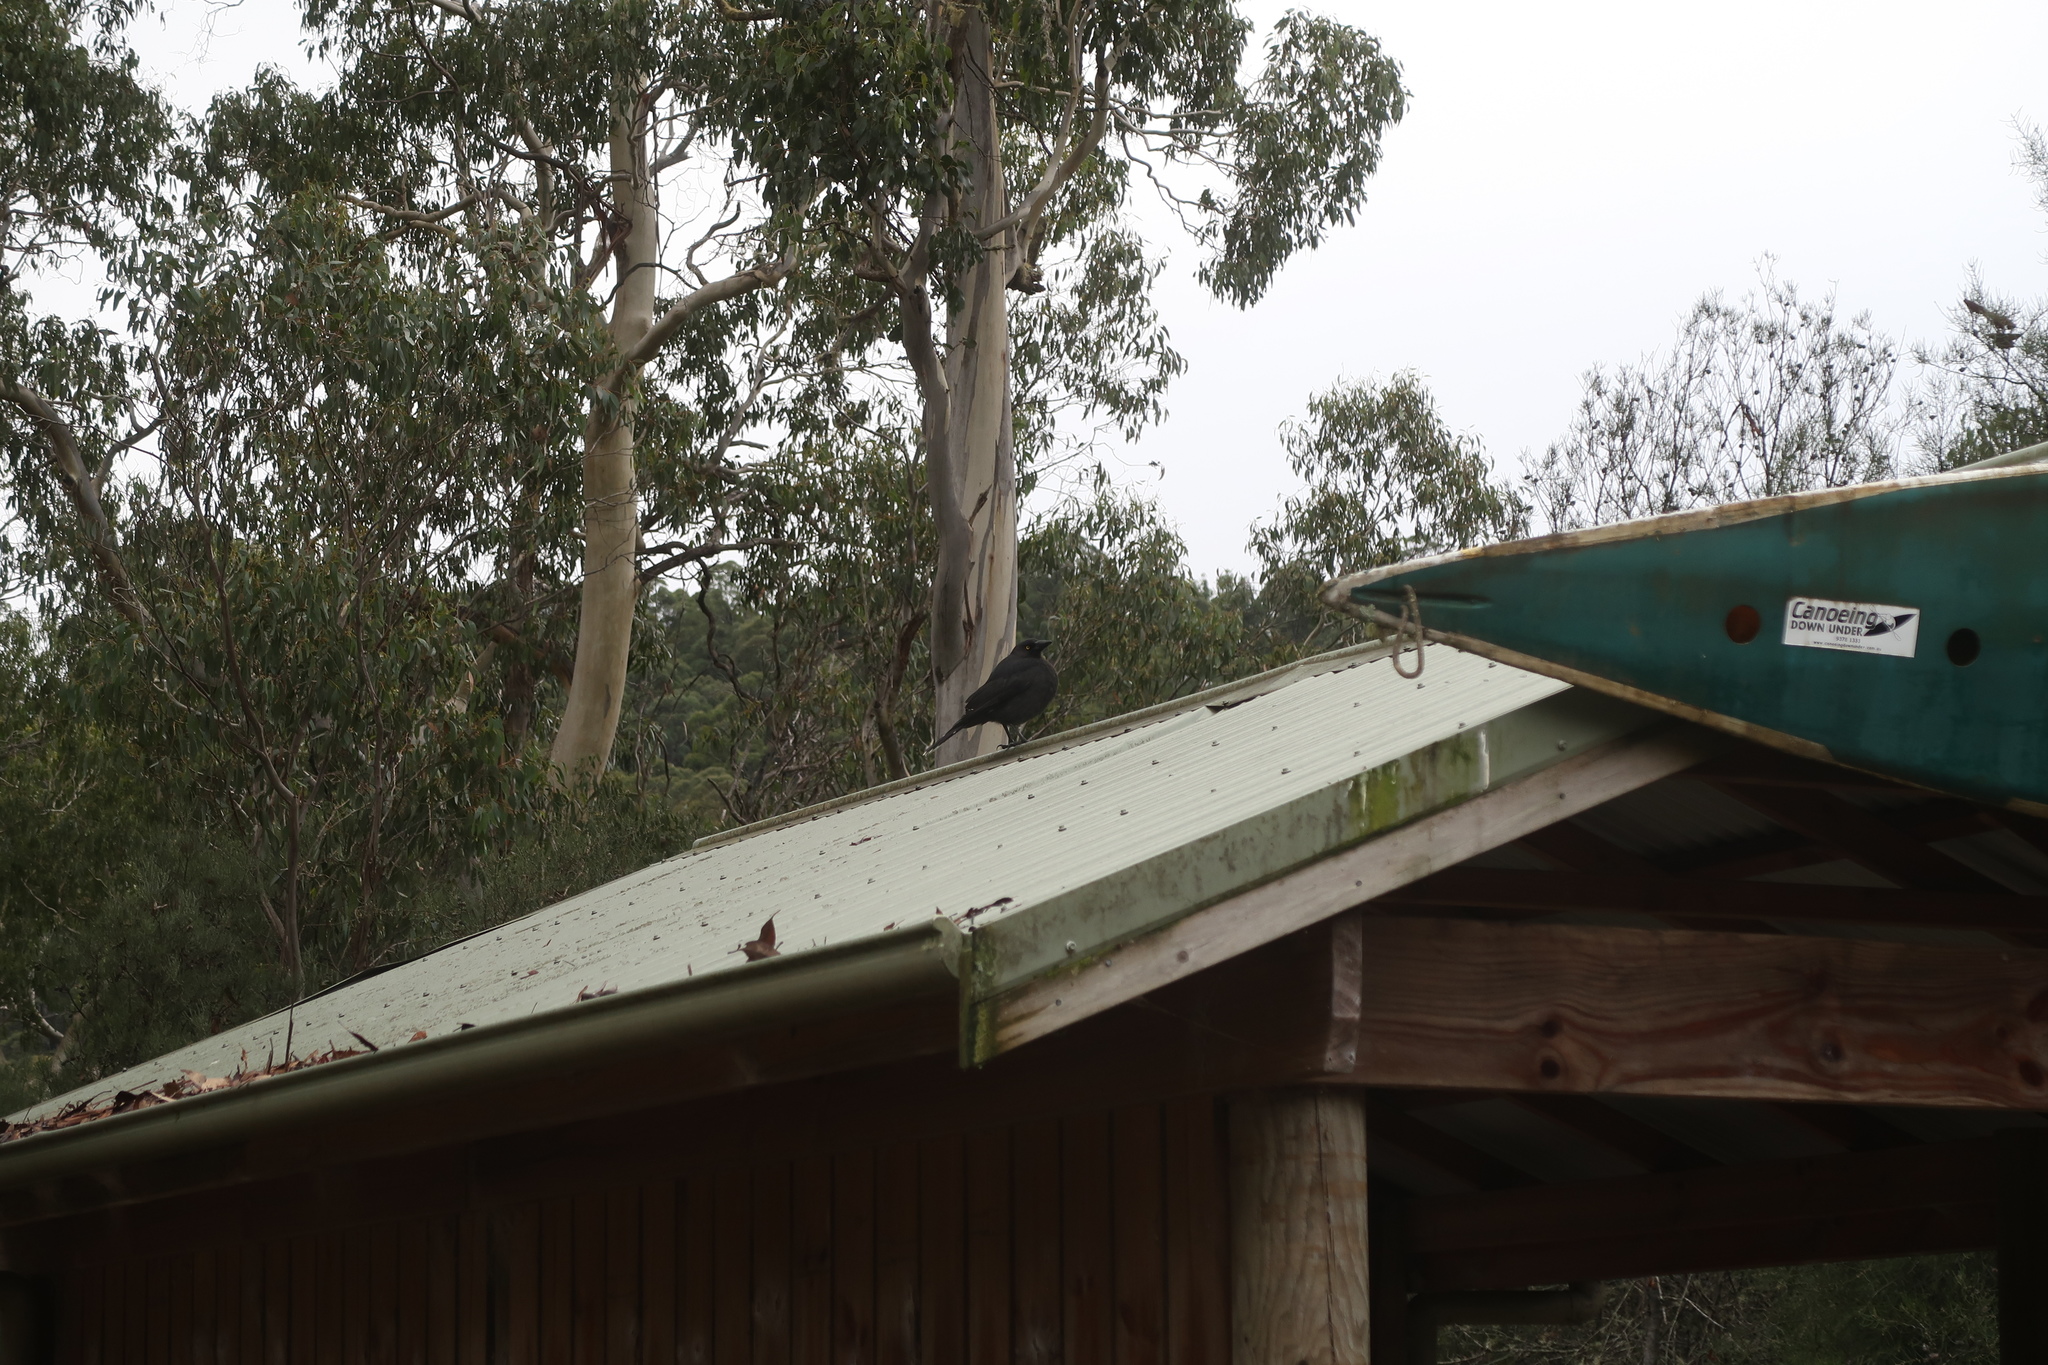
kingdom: Animalia
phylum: Chordata
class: Aves
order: Passeriformes
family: Cracticidae
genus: Strepera
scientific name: Strepera fuliginosa
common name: Black currawong
